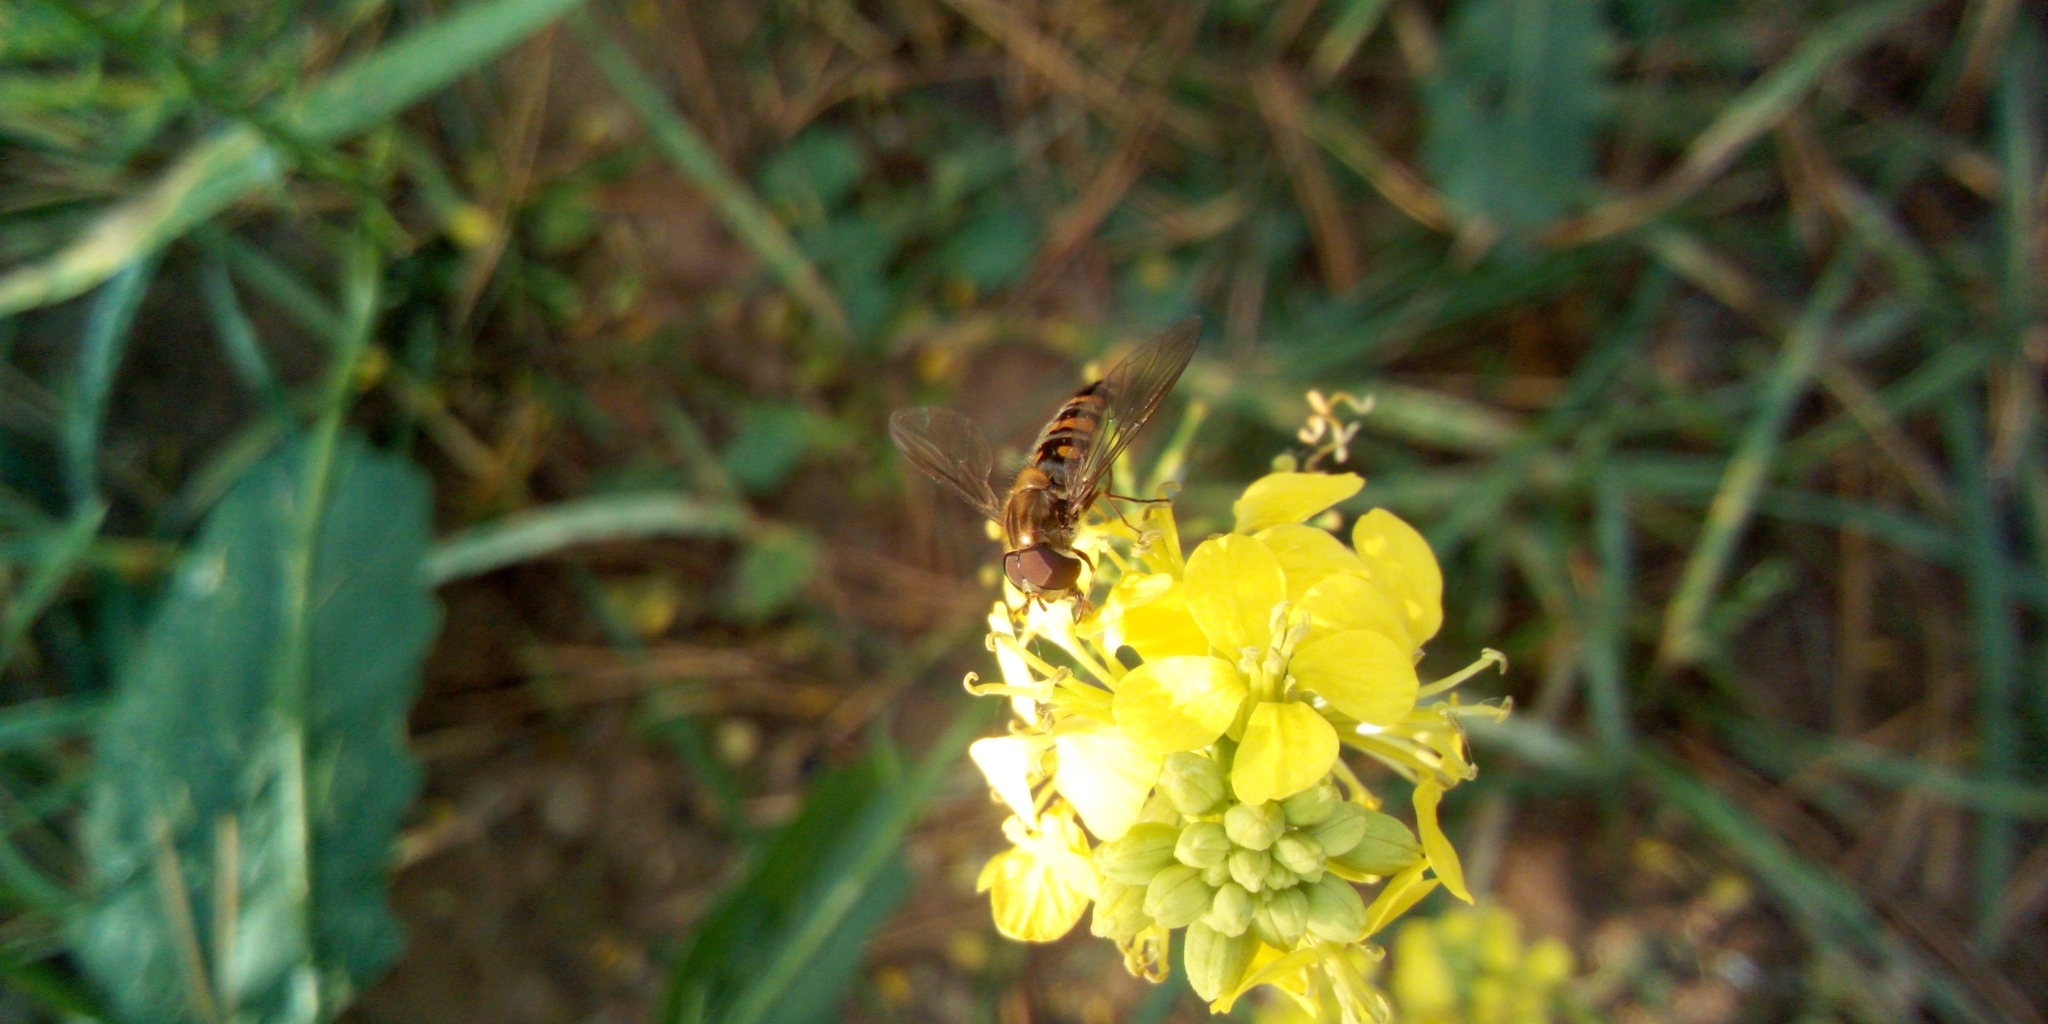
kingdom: Animalia
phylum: Arthropoda
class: Insecta
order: Diptera
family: Syrphidae
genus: Episyrphus
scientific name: Episyrphus balteatus
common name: Marmalade hoverfly
